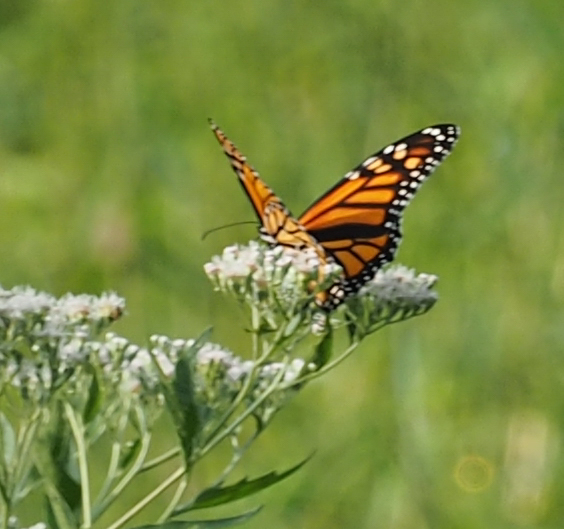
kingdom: Animalia
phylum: Arthropoda
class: Insecta
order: Lepidoptera
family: Nymphalidae
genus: Danaus
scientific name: Danaus plexippus
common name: Monarch
